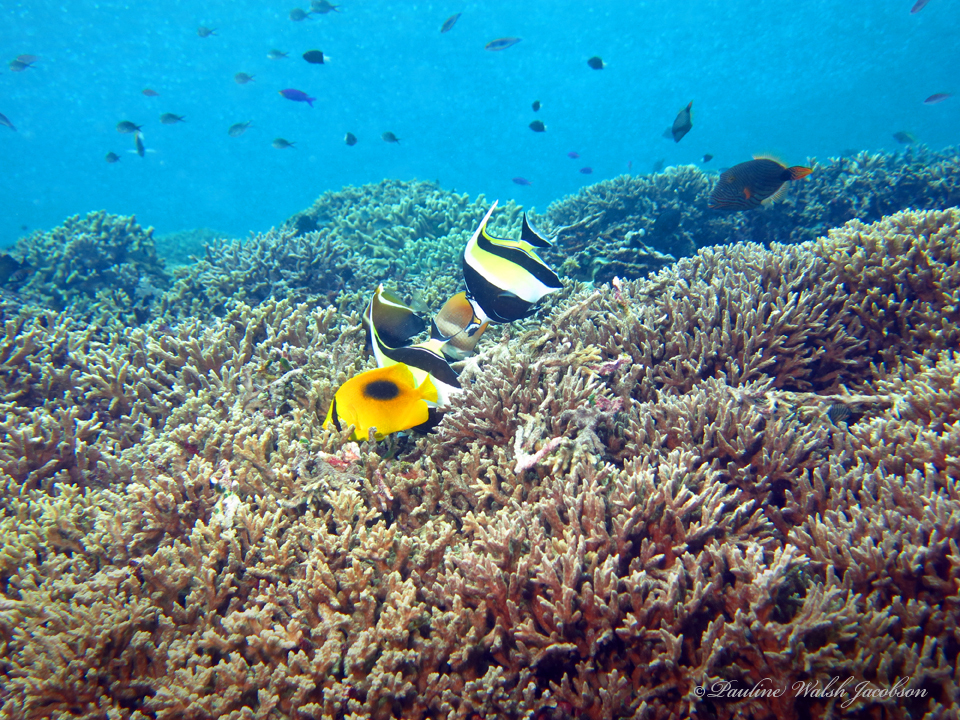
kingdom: Animalia
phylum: Chordata
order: Perciformes
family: Chaetodontidae
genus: Chaetodon
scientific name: Chaetodon speculum
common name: Mirror butterflyfish
